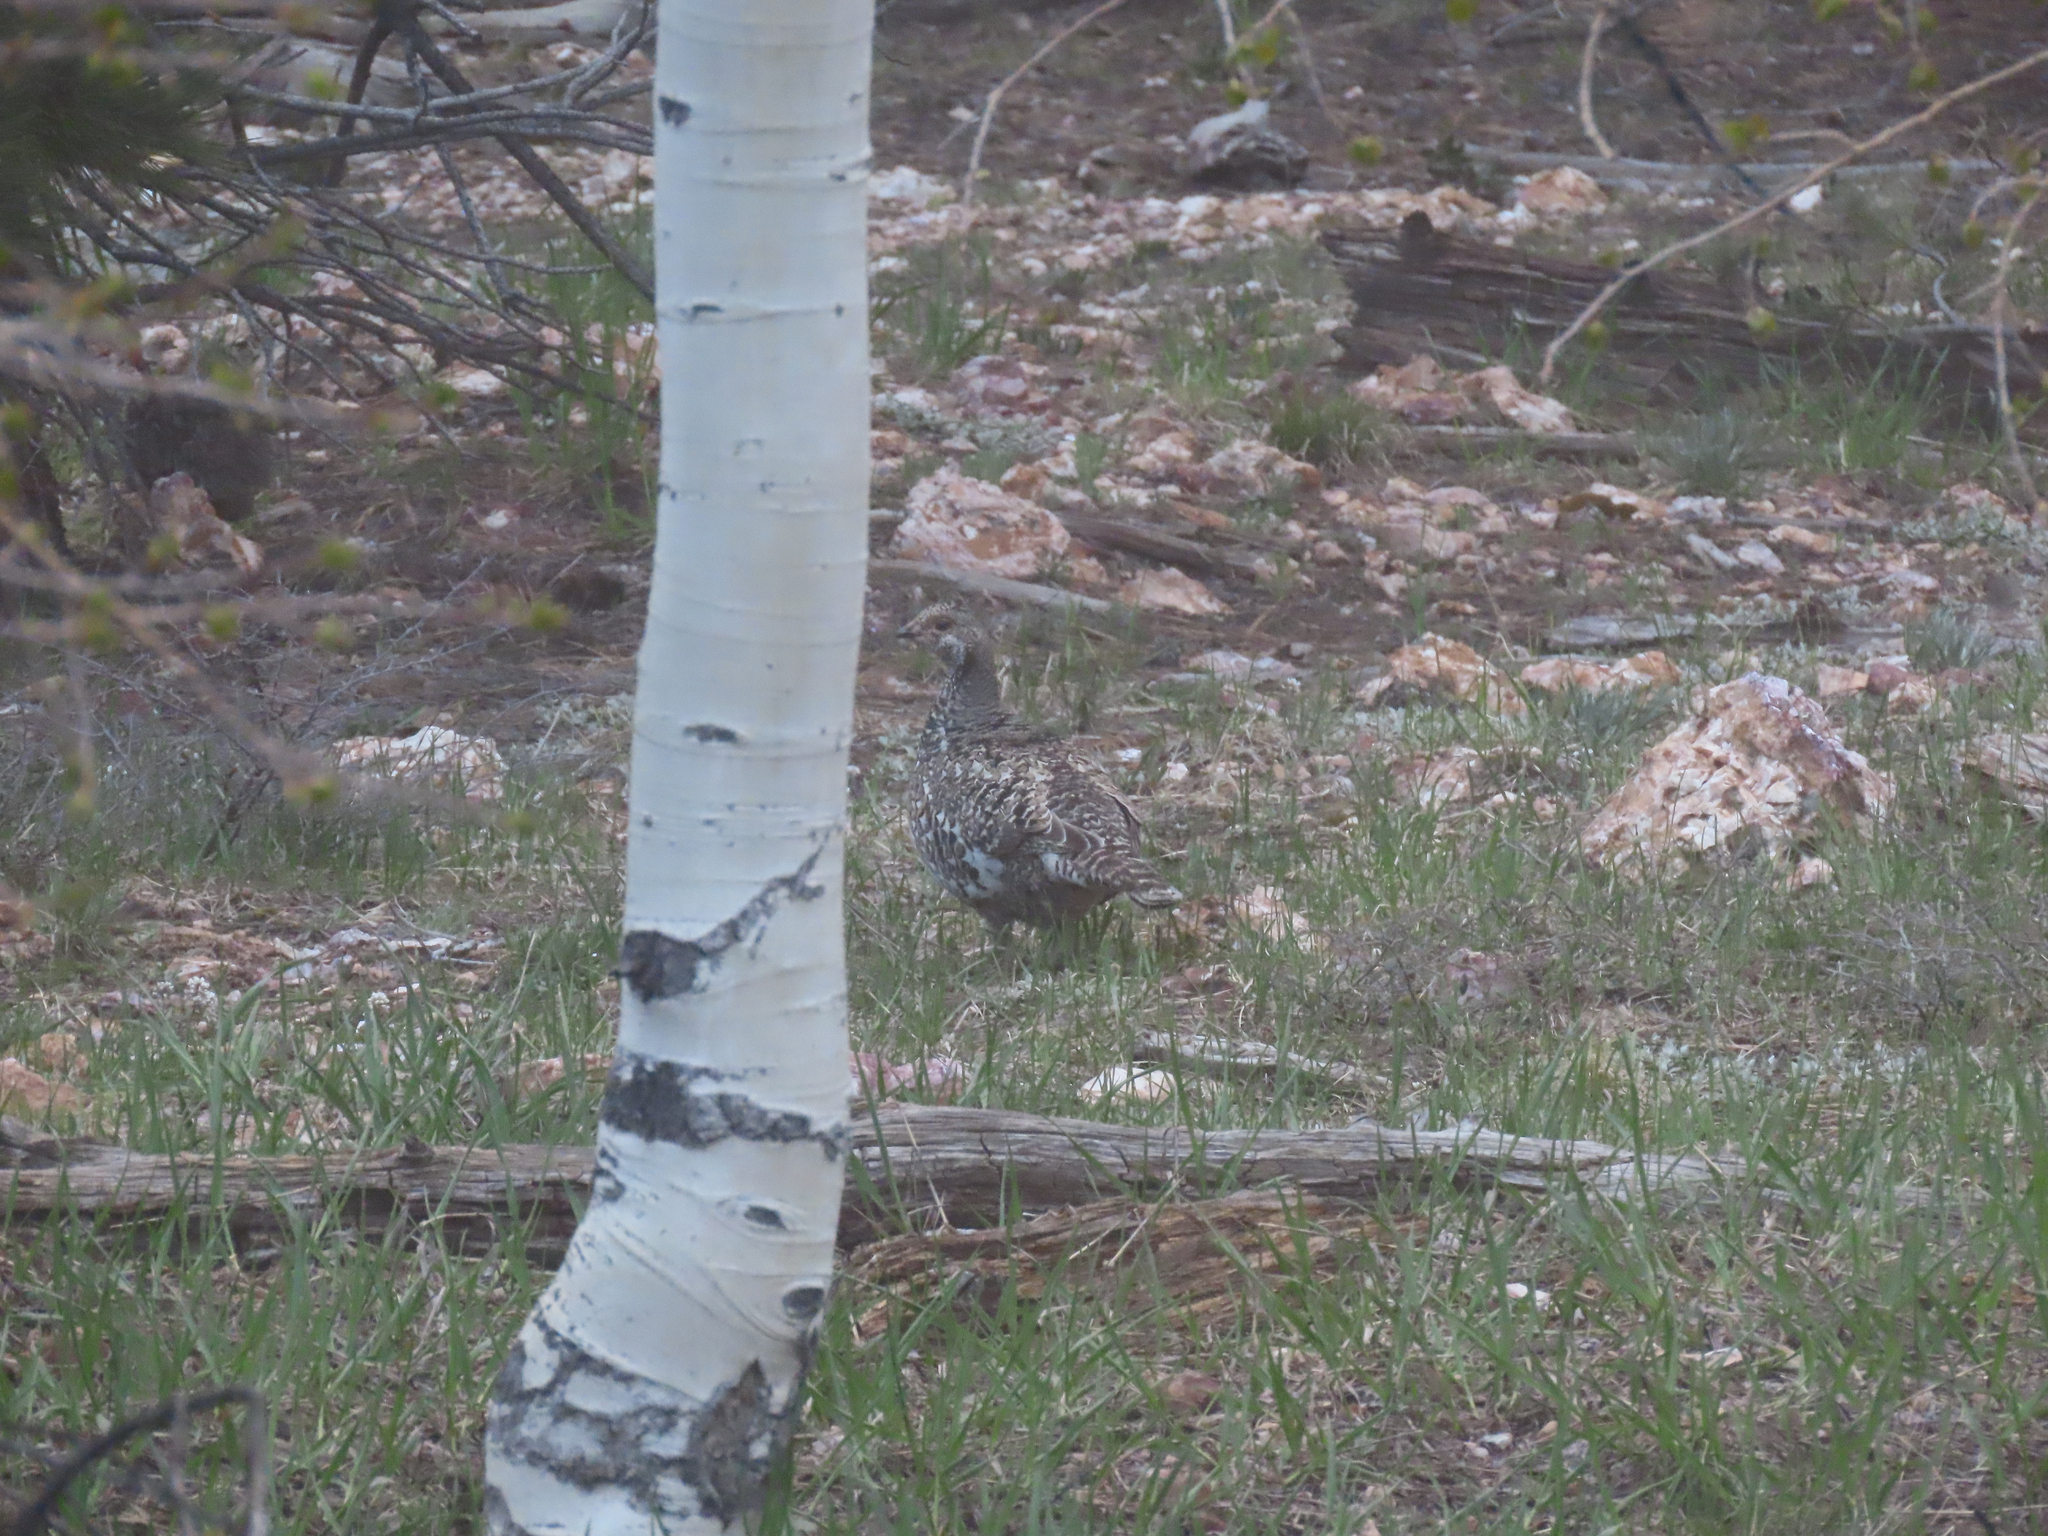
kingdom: Animalia
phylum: Chordata
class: Aves
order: Galliformes
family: Phasianidae
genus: Dendragapus
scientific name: Dendragapus obscurus
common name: Dusky grouse
